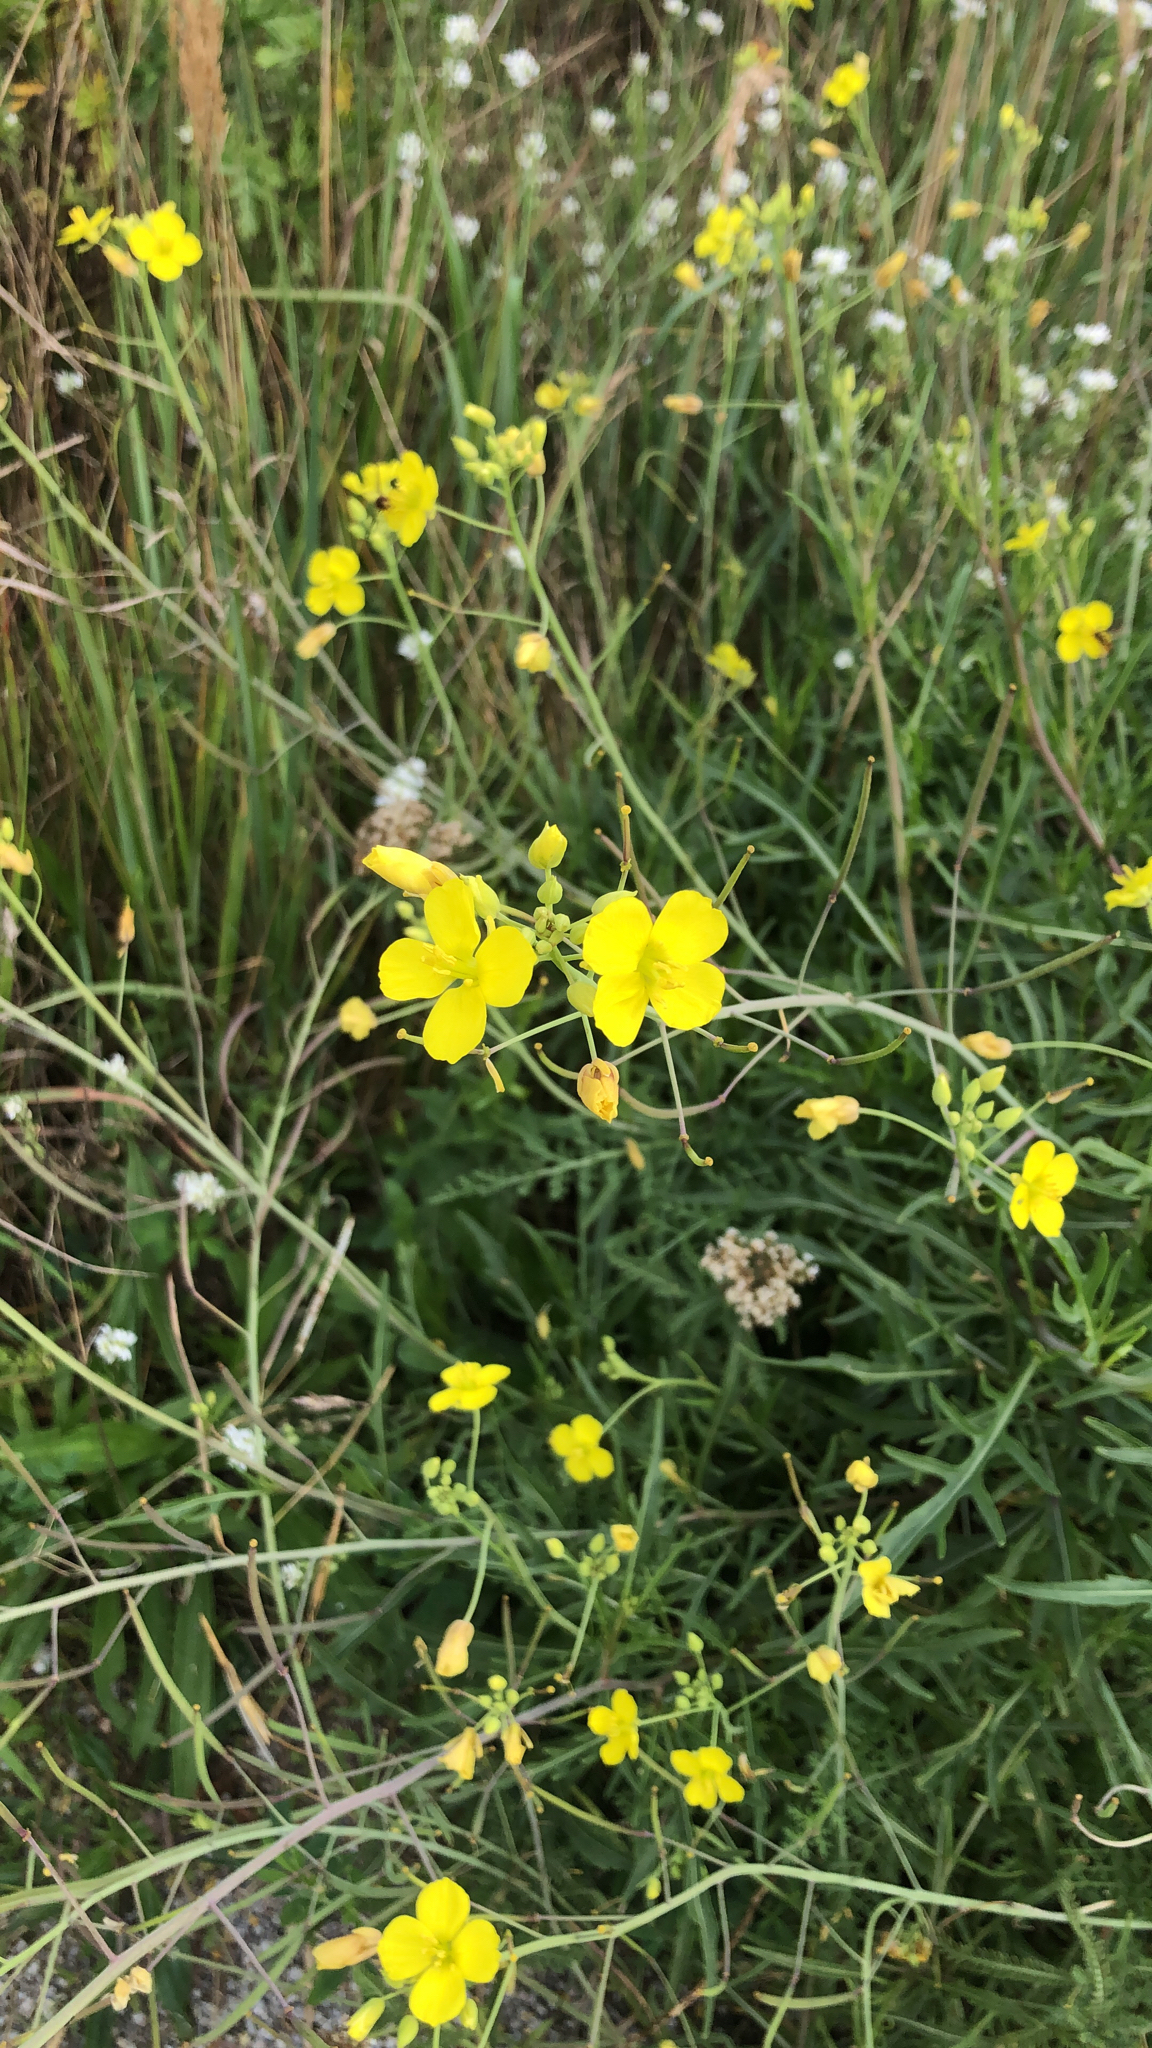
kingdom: Plantae
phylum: Tracheophyta
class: Magnoliopsida
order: Brassicales
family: Brassicaceae
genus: Diplotaxis
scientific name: Diplotaxis tenuifolia
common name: Perennial wall-rocket
